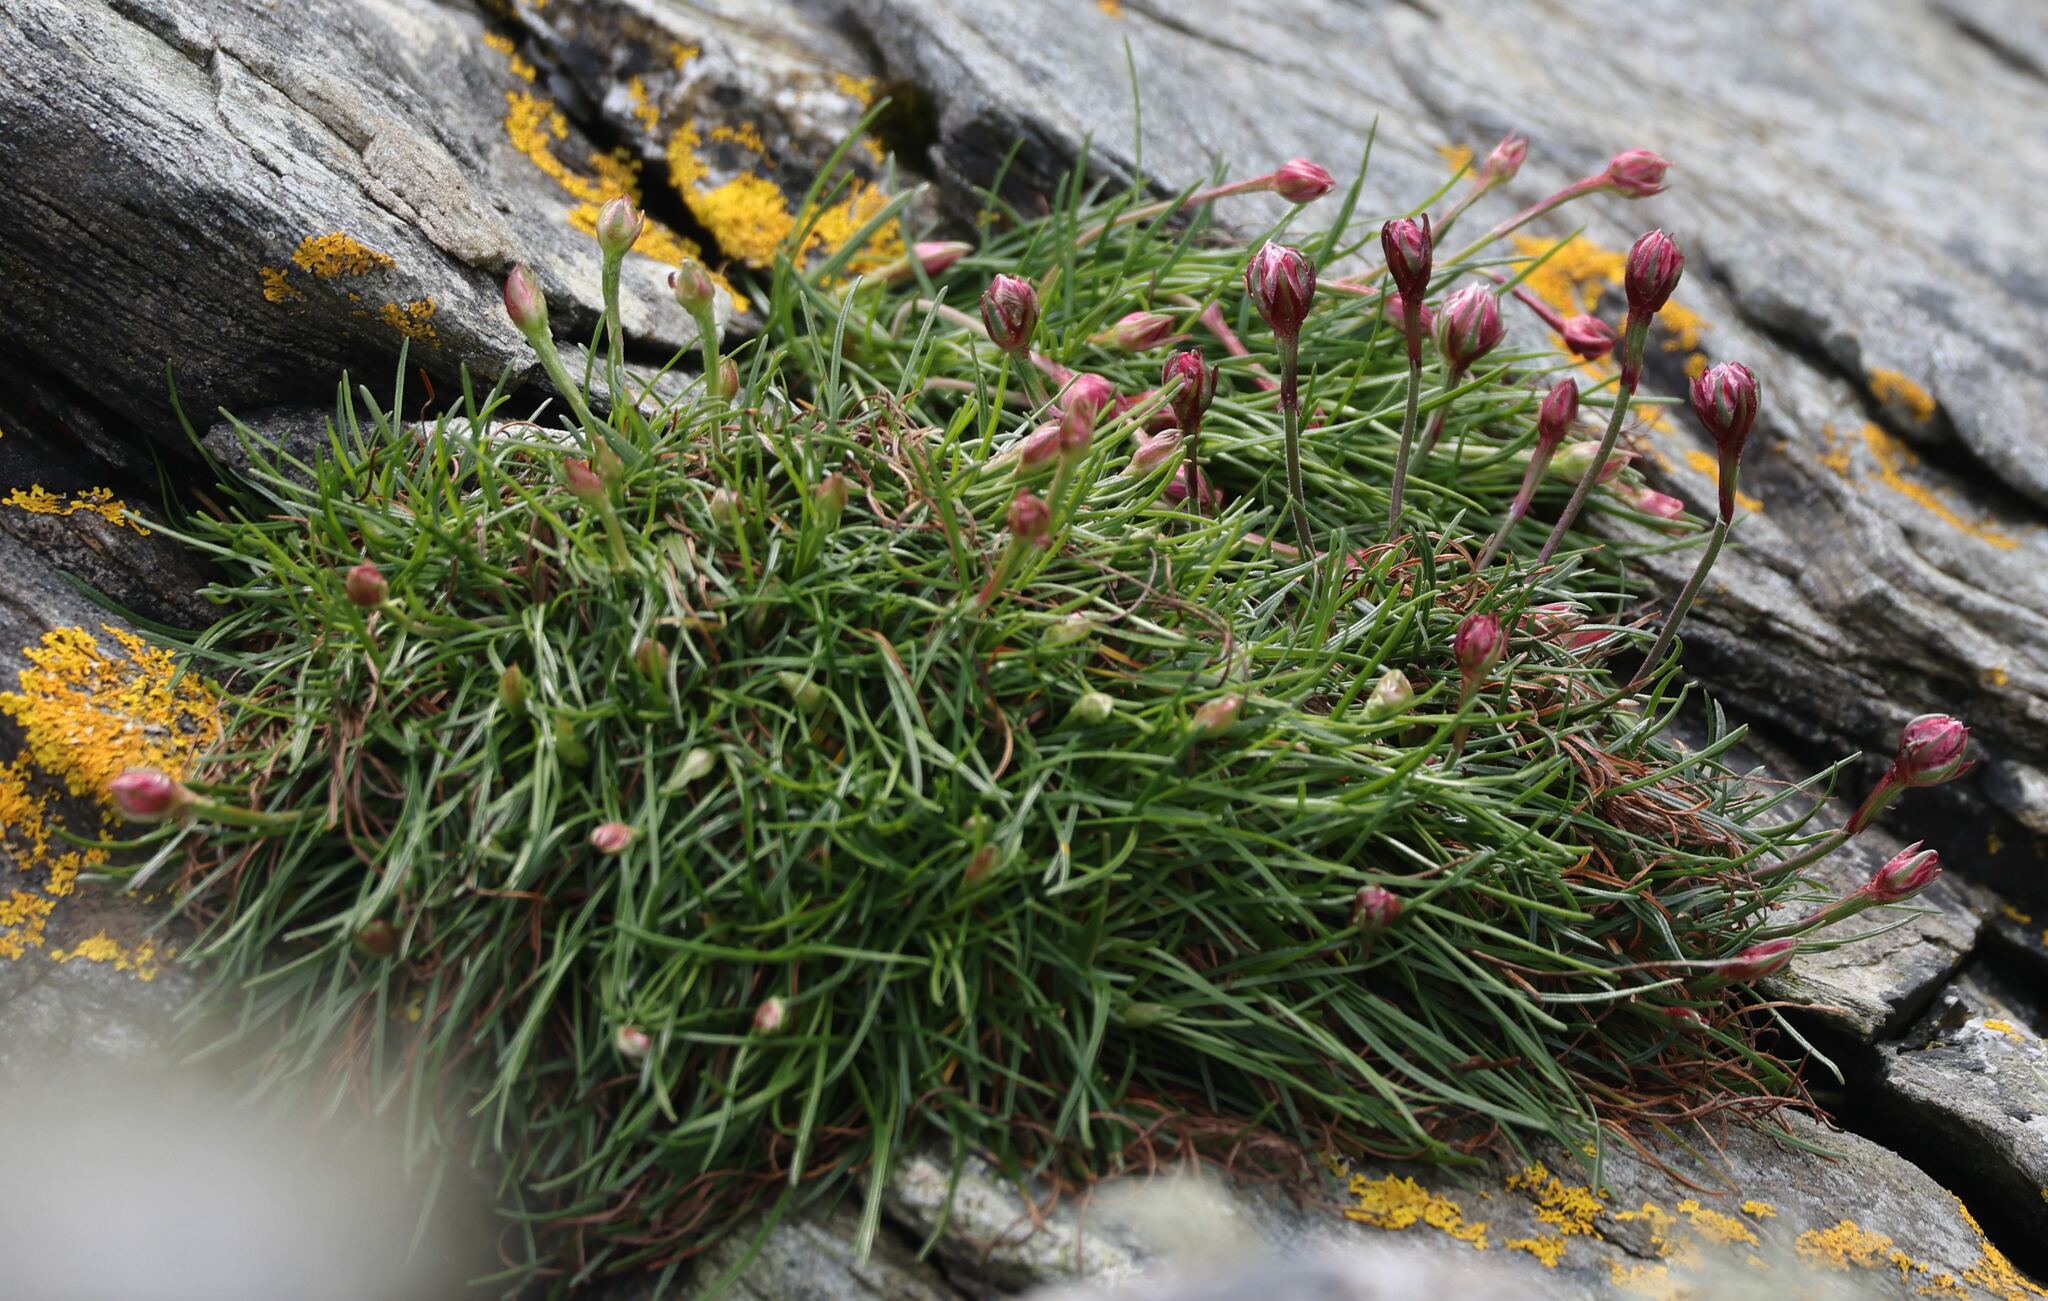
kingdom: Plantae
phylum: Tracheophyta
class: Magnoliopsida
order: Caryophyllales
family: Plumbaginaceae
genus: Armeria
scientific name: Armeria maritima
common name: Thrift
